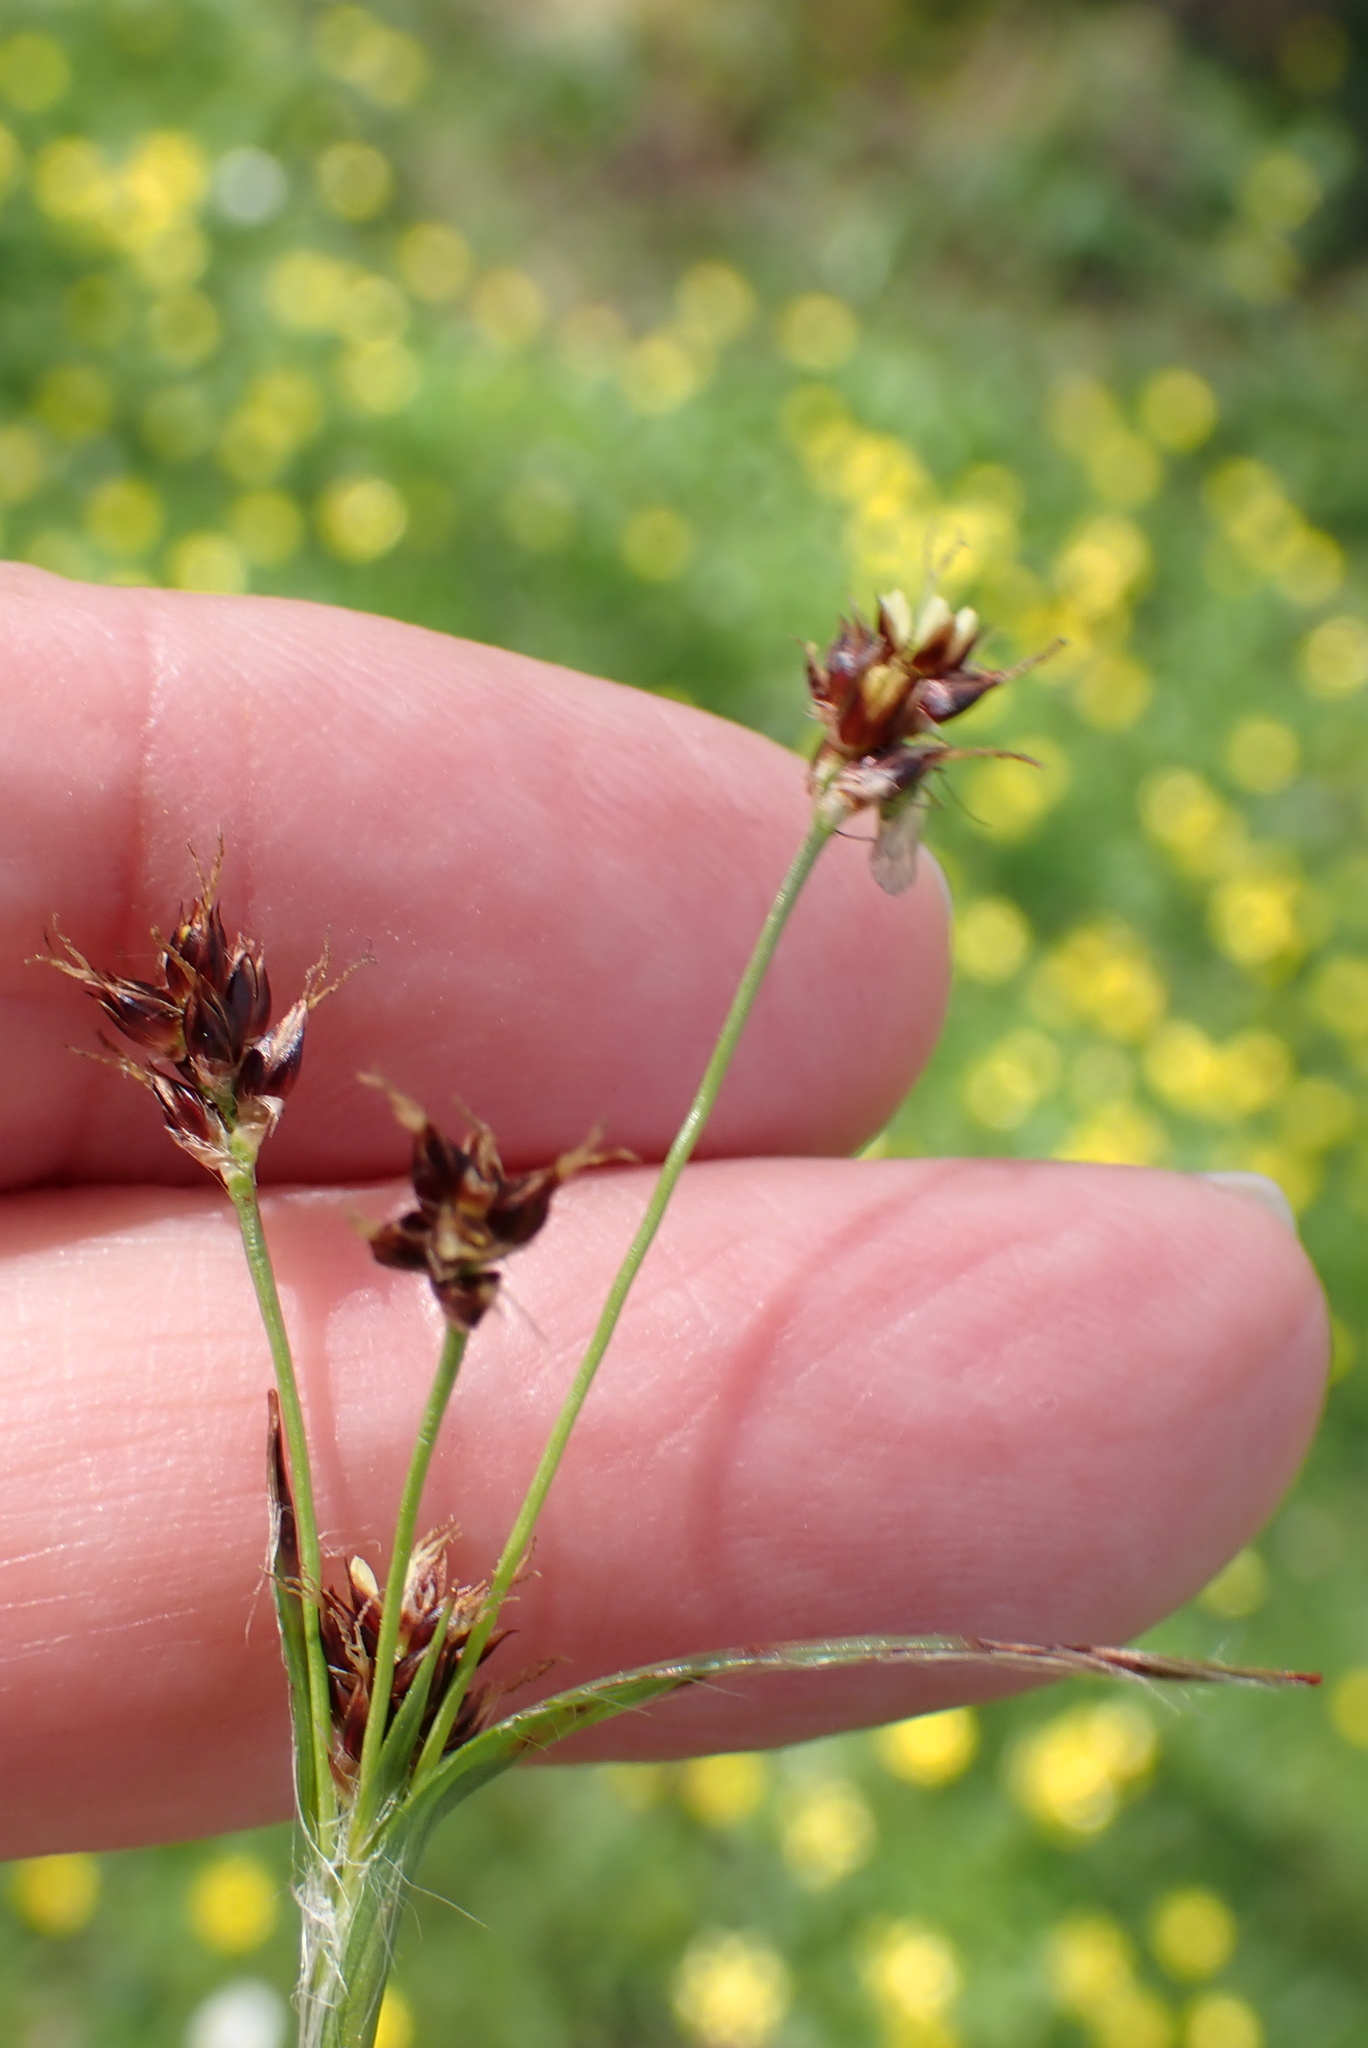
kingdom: Plantae
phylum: Tracheophyta
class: Liliopsida
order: Poales
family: Juncaceae
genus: Luzula
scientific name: Luzula campestris
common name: Field wood-rush
